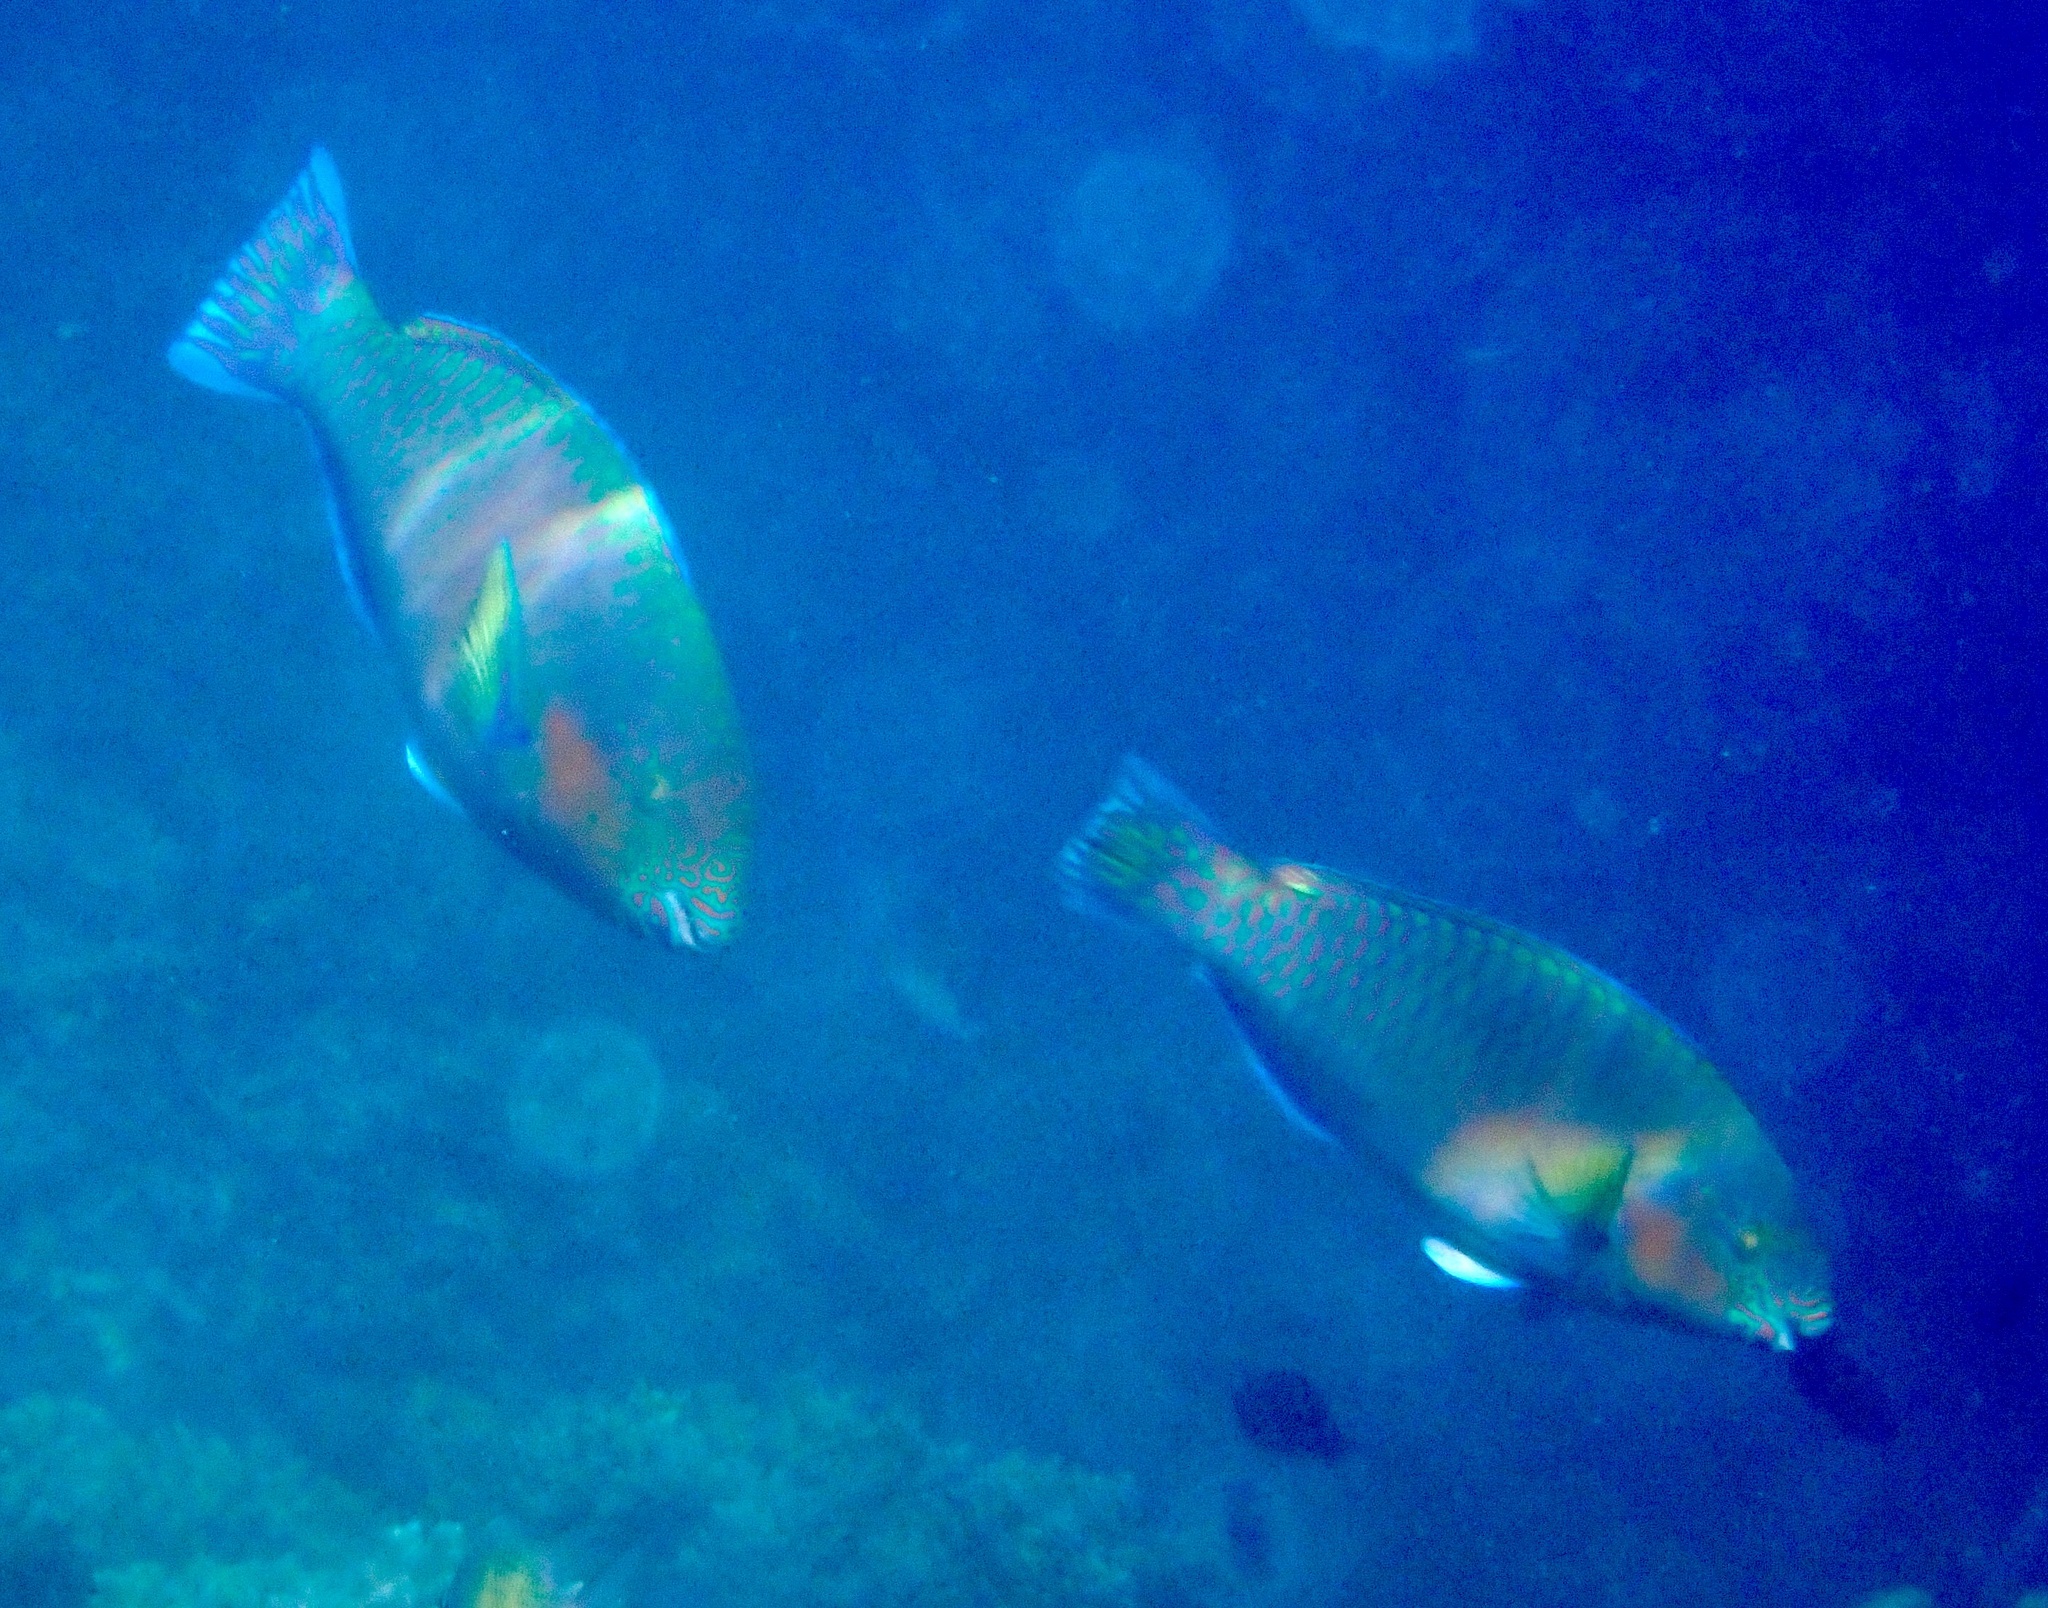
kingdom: Animalia
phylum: Chordata
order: Perciformes
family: Scaridae
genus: Scarus
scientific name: Scarus rivulatus
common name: Surf parrotfish
